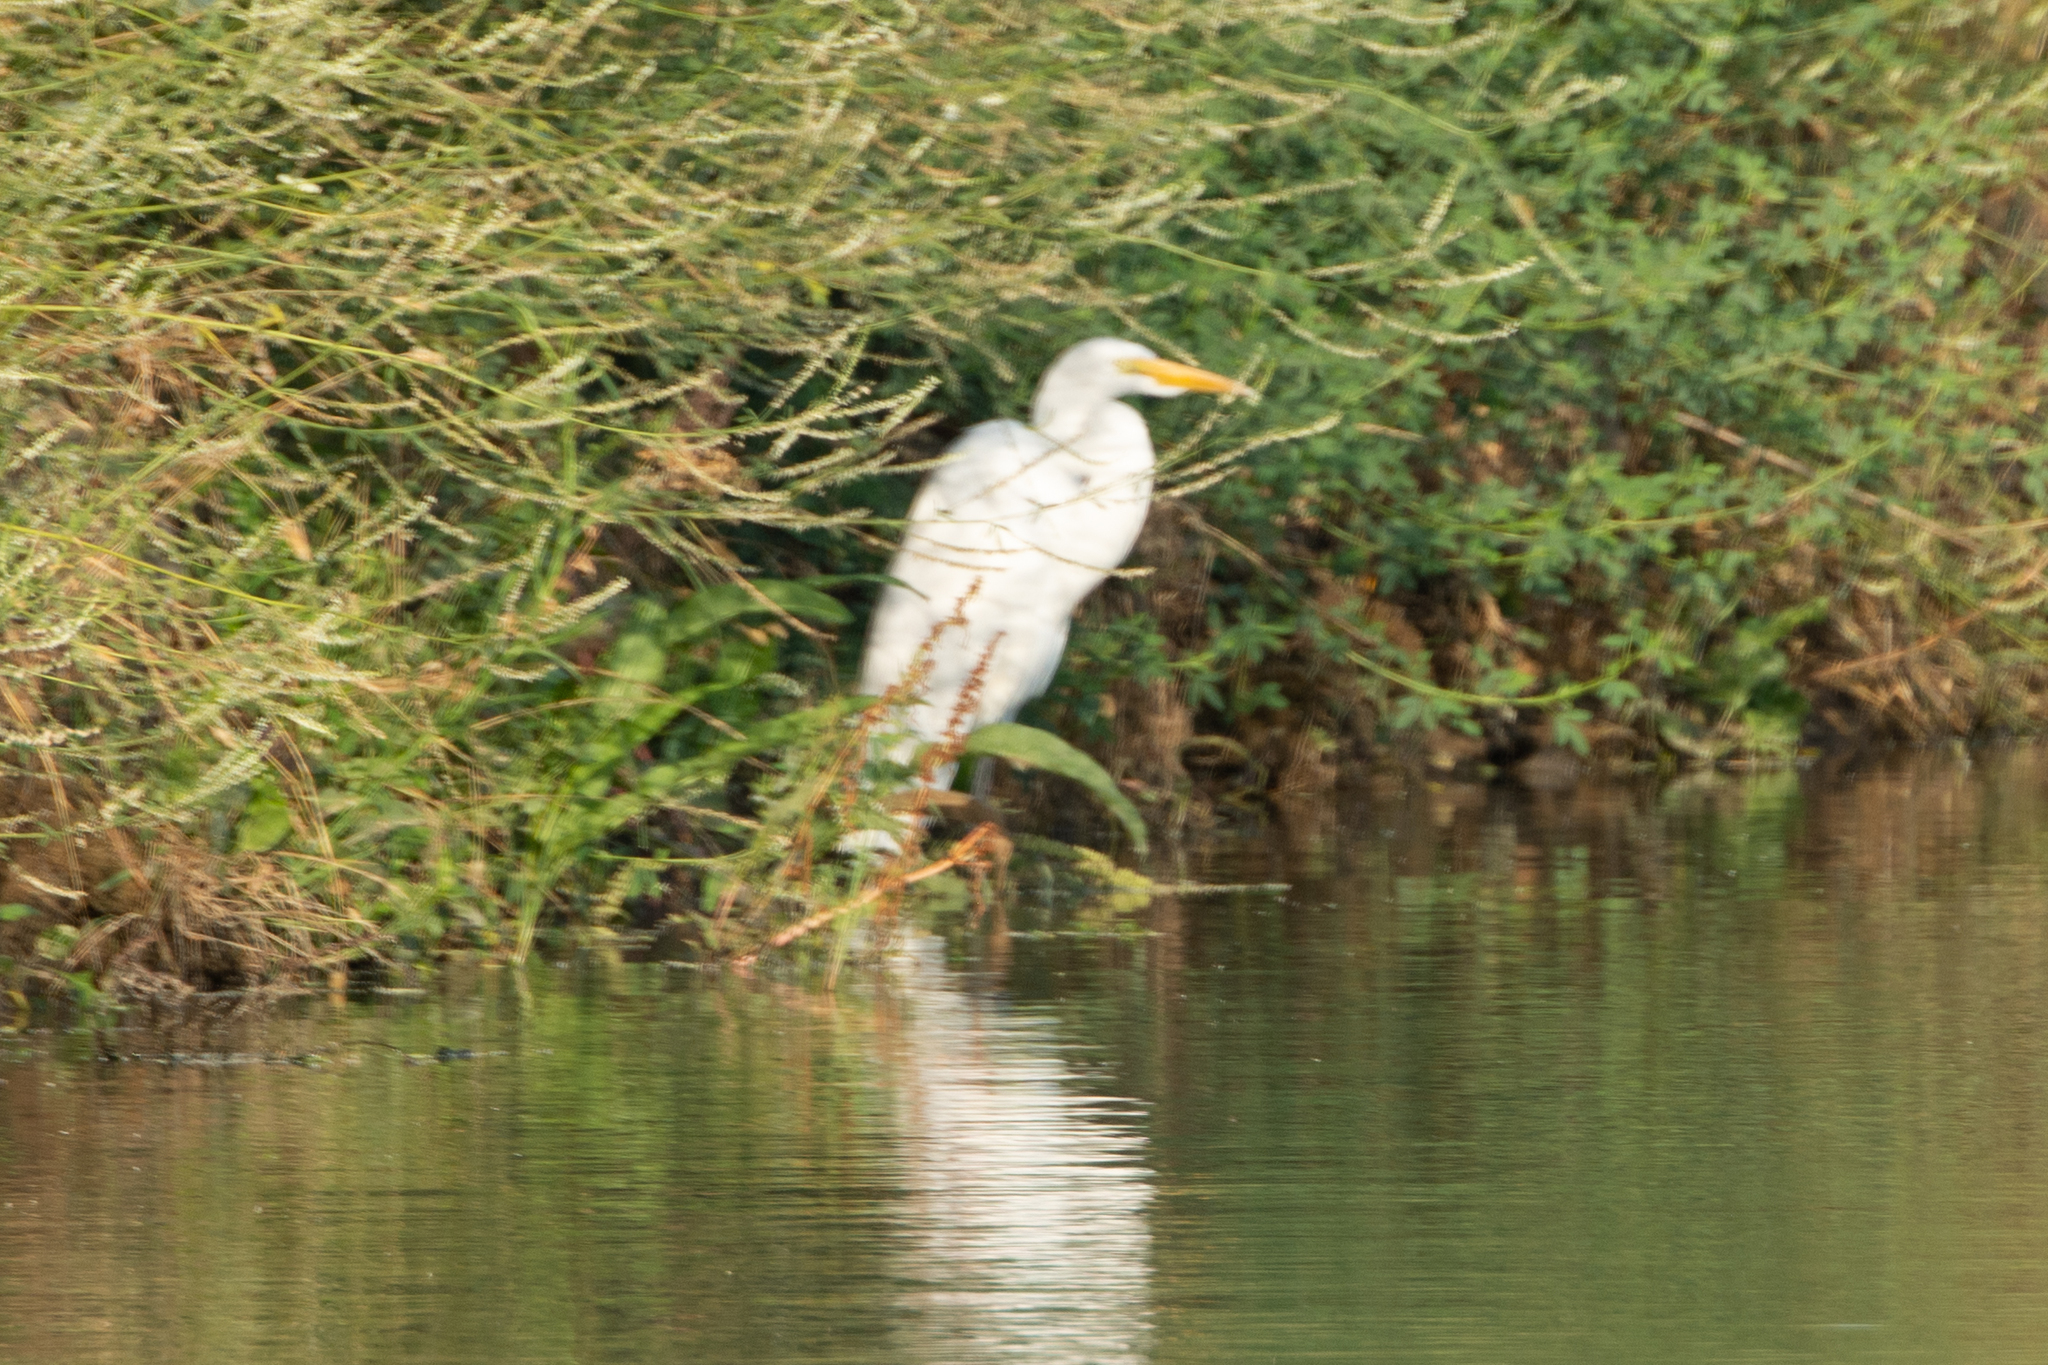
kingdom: Animalia
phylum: Chordata
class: Aves
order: Pelecaniformes
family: Ardeidae
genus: Ardea
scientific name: Ardea alba
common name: Great egret
